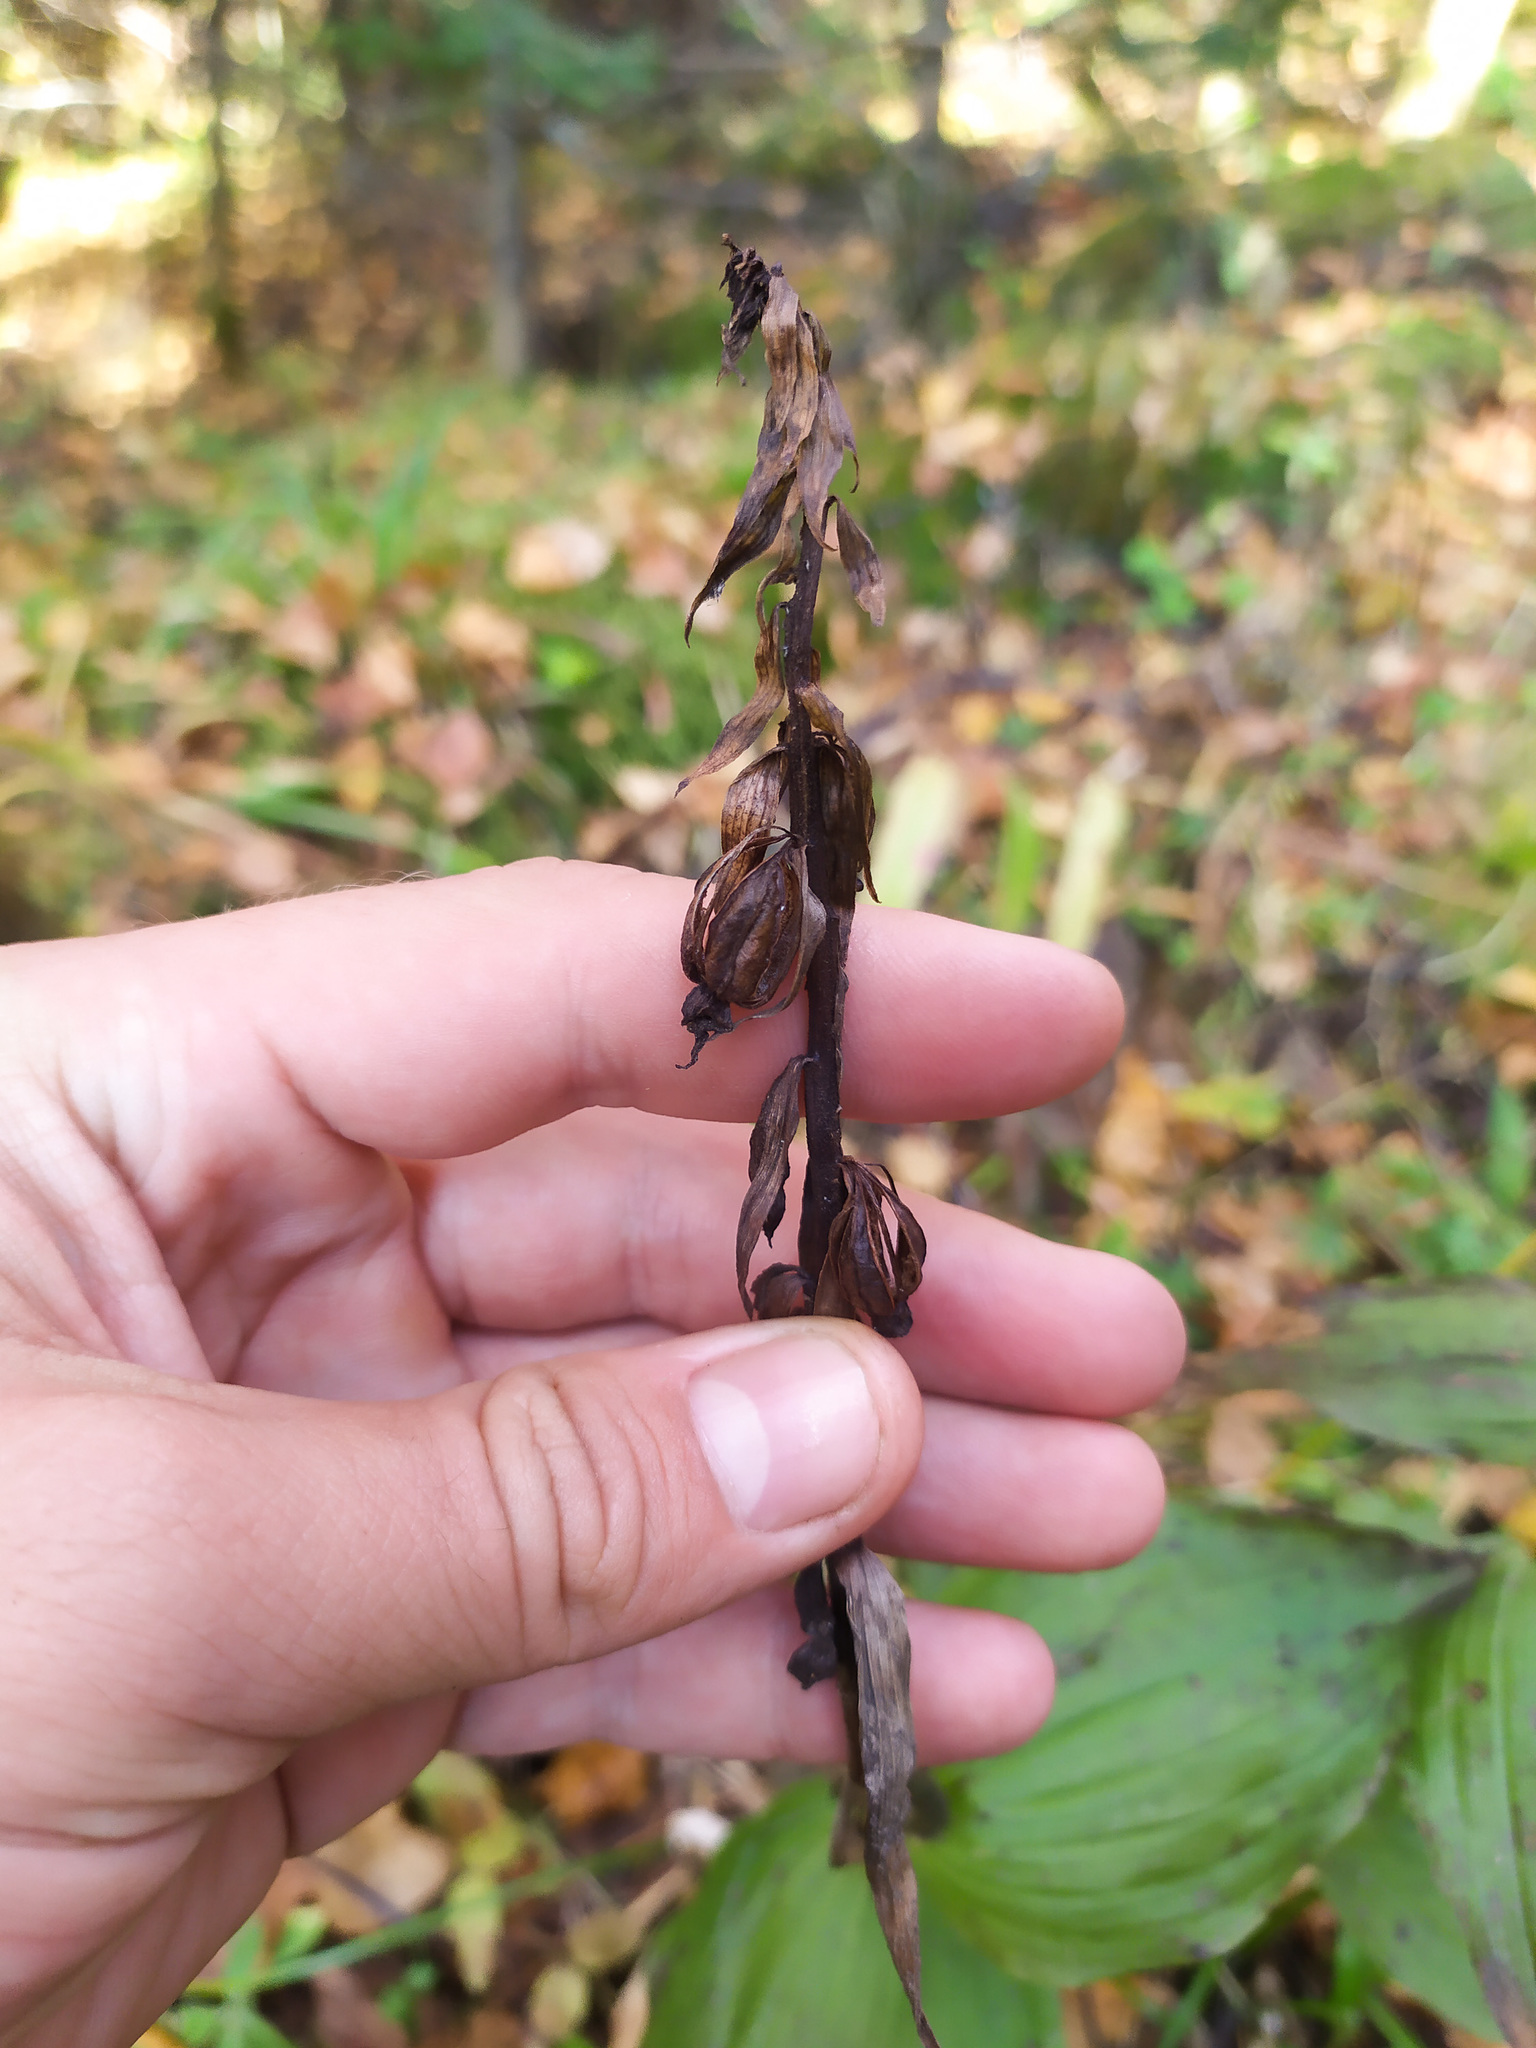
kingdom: Plantae
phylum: Tracheophyta
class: Liliopsida
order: Asparagales
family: Orchidaceae
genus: Epipactis
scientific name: Epipactis helleborine
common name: Broad-leaved helleborine
